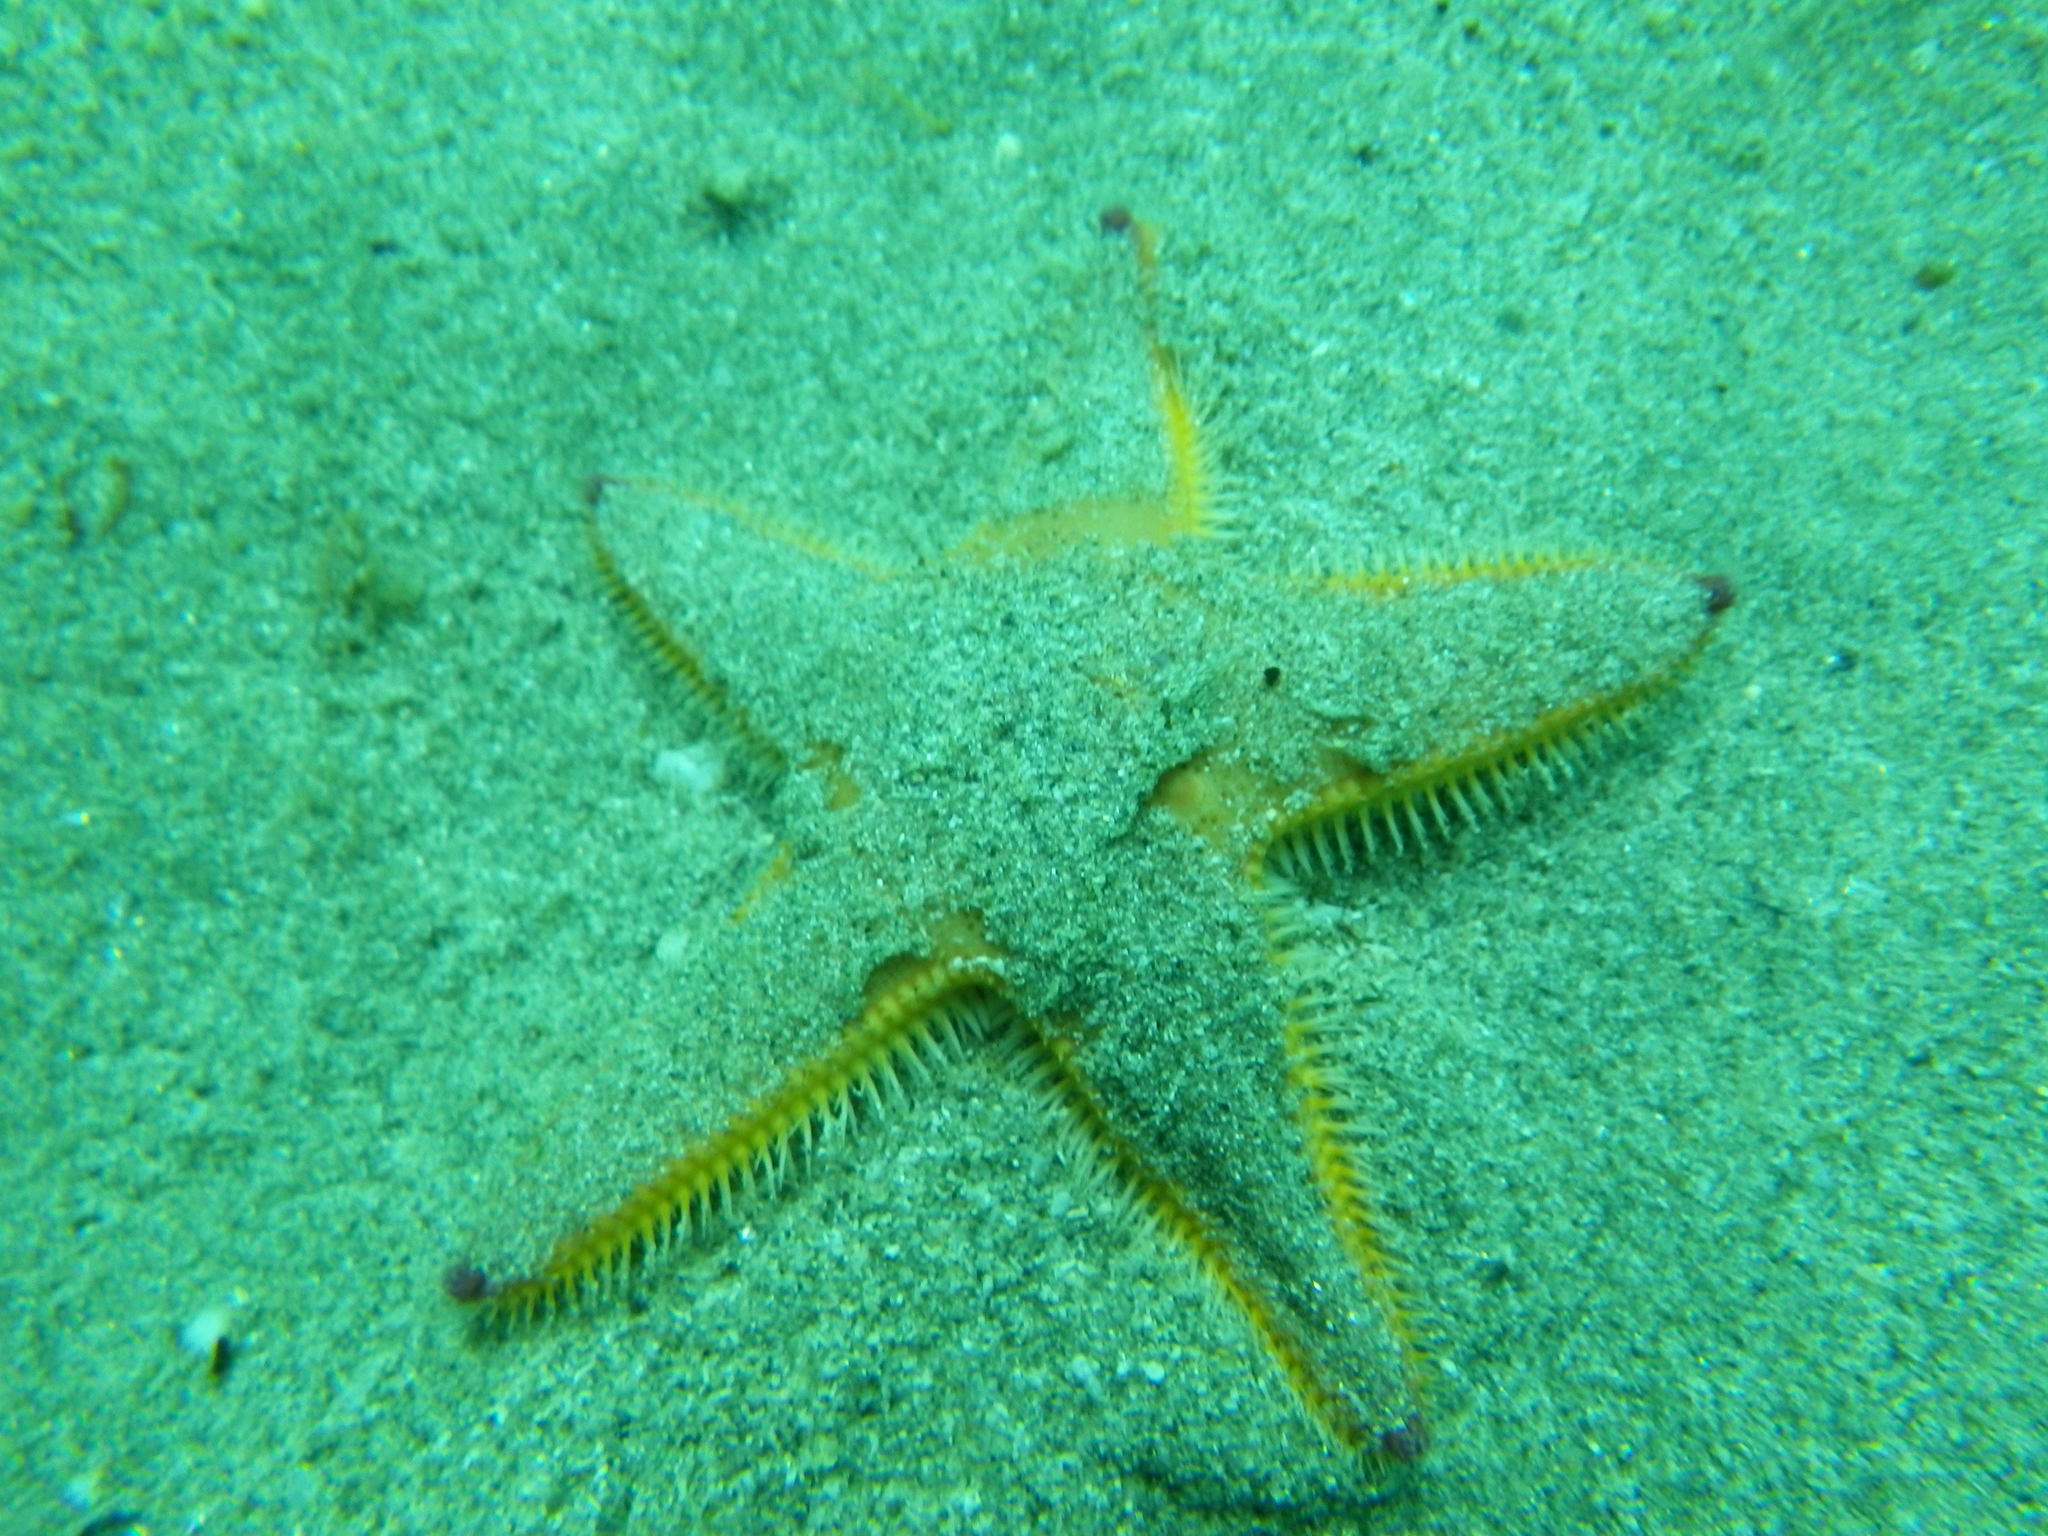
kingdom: Animalia
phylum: Echinodermata
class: Asteroidea
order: Paxillosida
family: Astropectinidae
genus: Astropecten
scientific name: Astropecten irregularis
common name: Sand star
